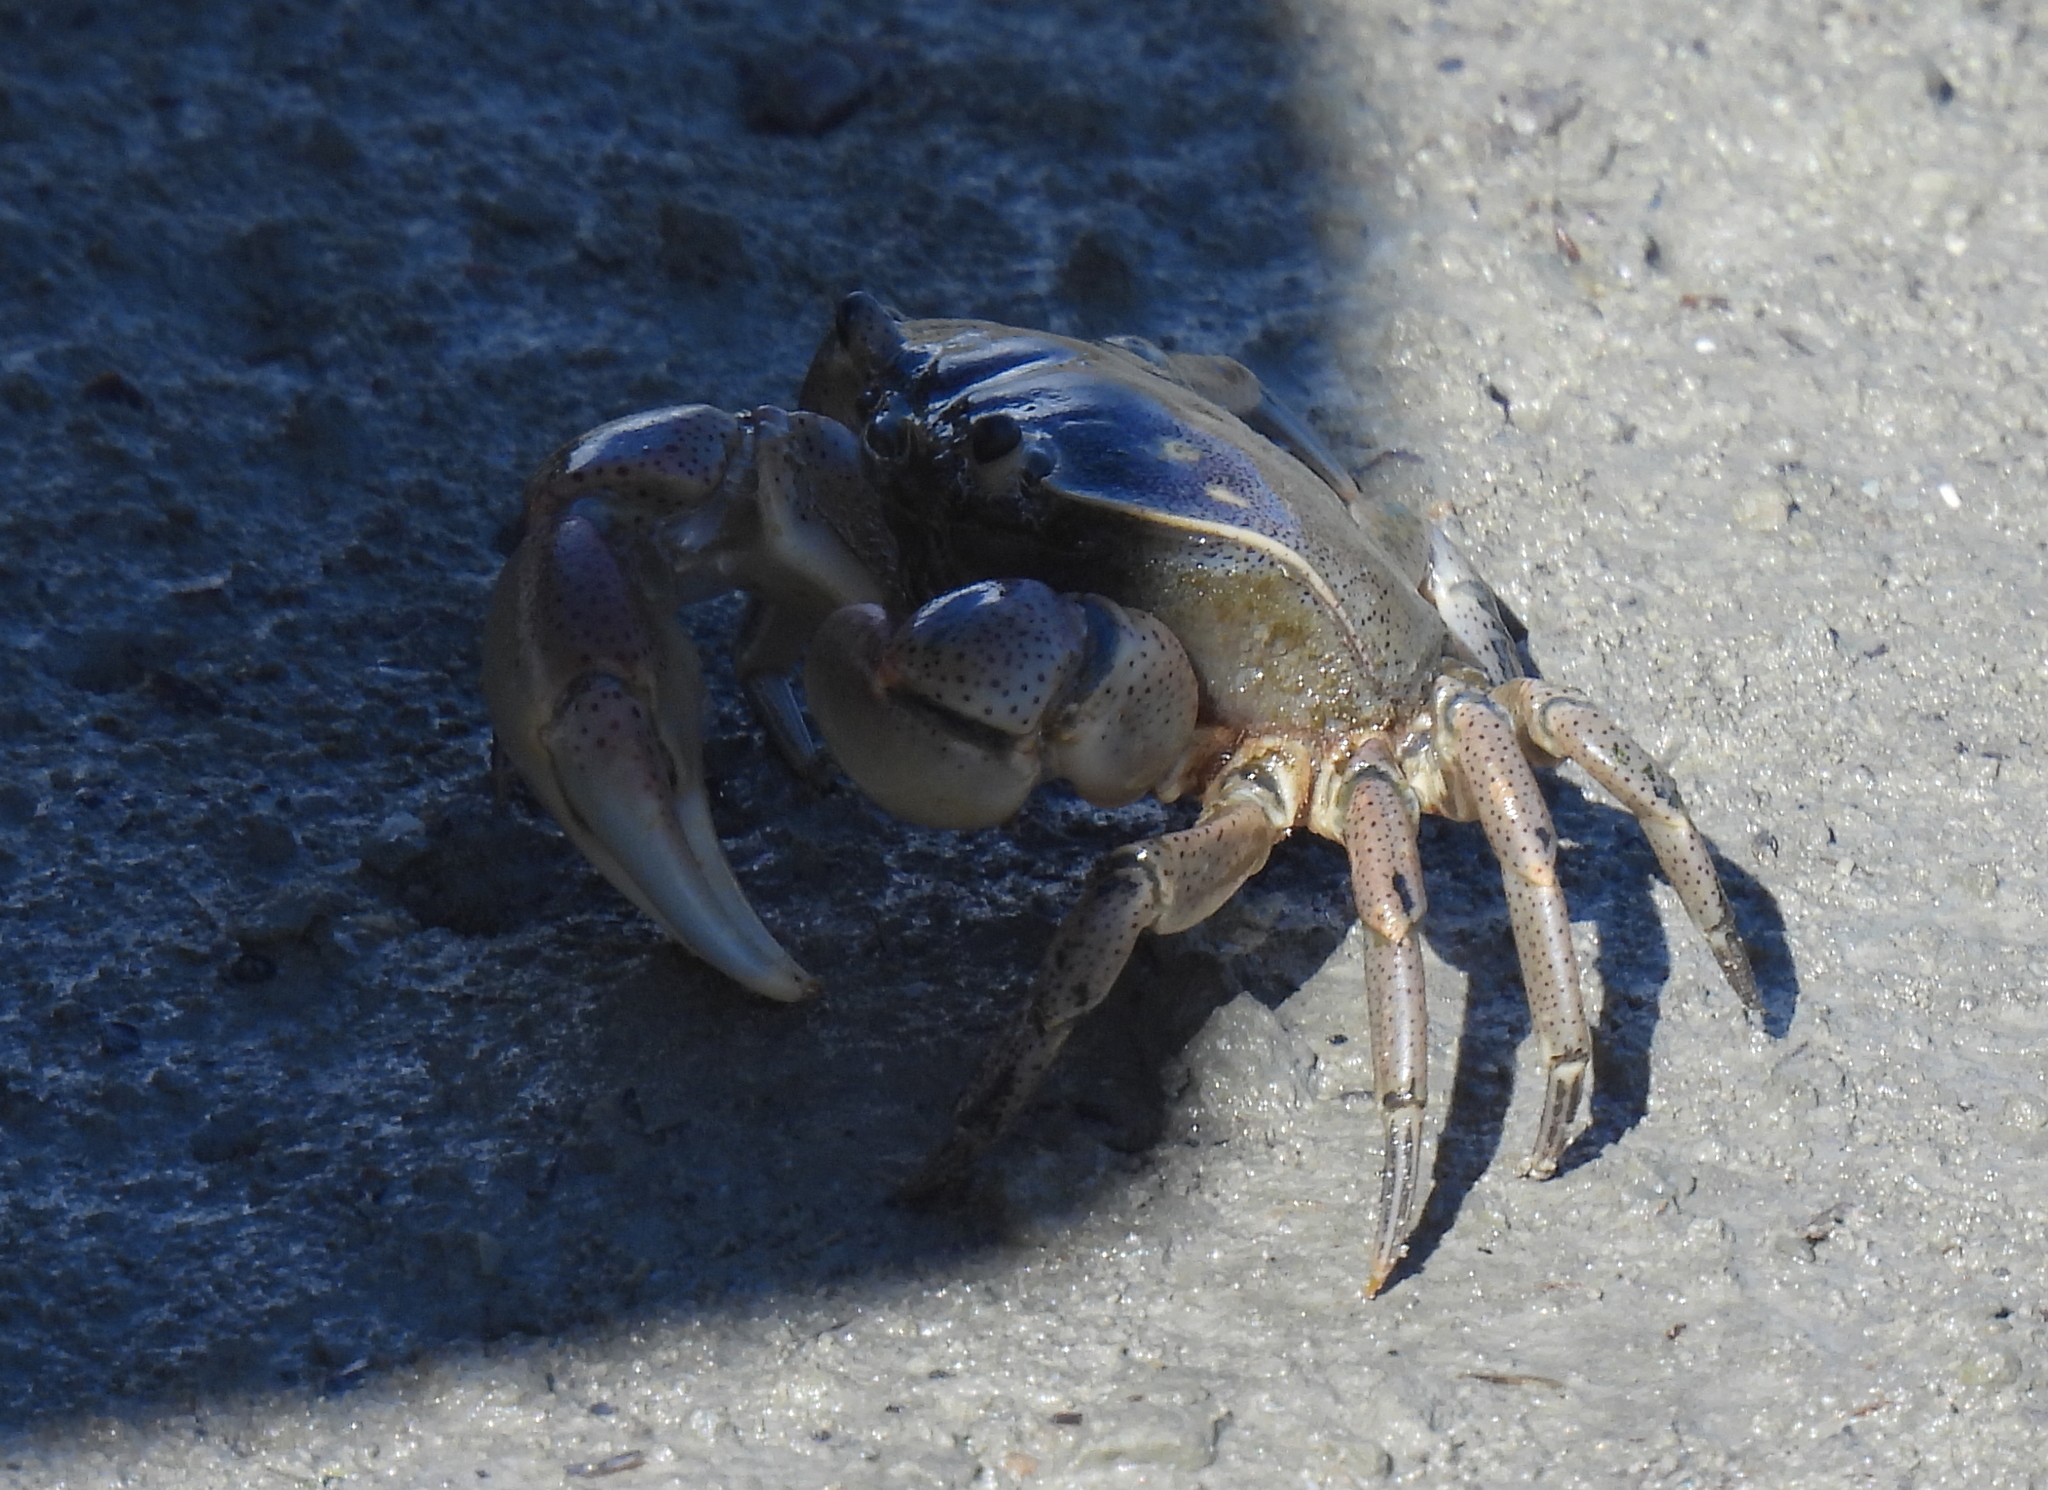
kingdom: Animalia
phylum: Arthropoda
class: Malacostraca
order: Decapoda
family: Varunidae
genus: Cyclograpsus
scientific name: Cyclograpsus punctatus
